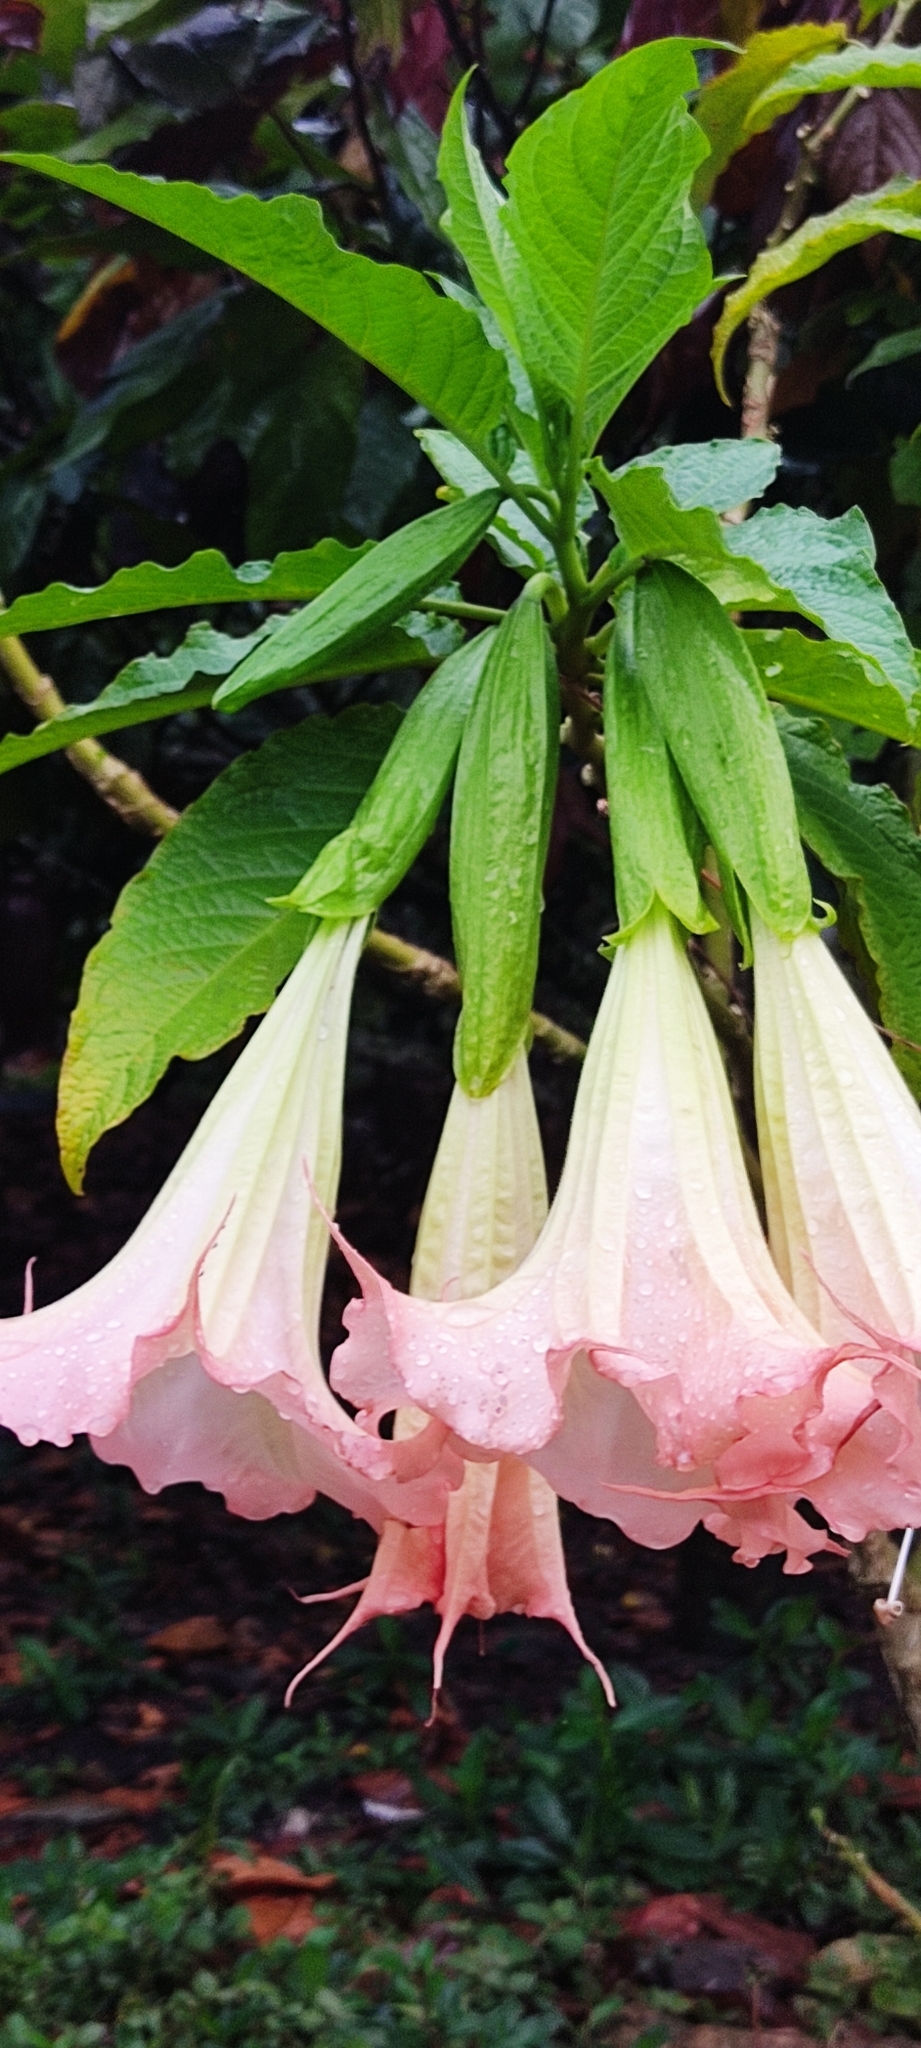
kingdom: Plantae
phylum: Tracheophyta
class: Magnoliopsida
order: Solanales
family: Solanaceae
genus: Brugmansia
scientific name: Brugmansia suaveolens
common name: Angel's tears
